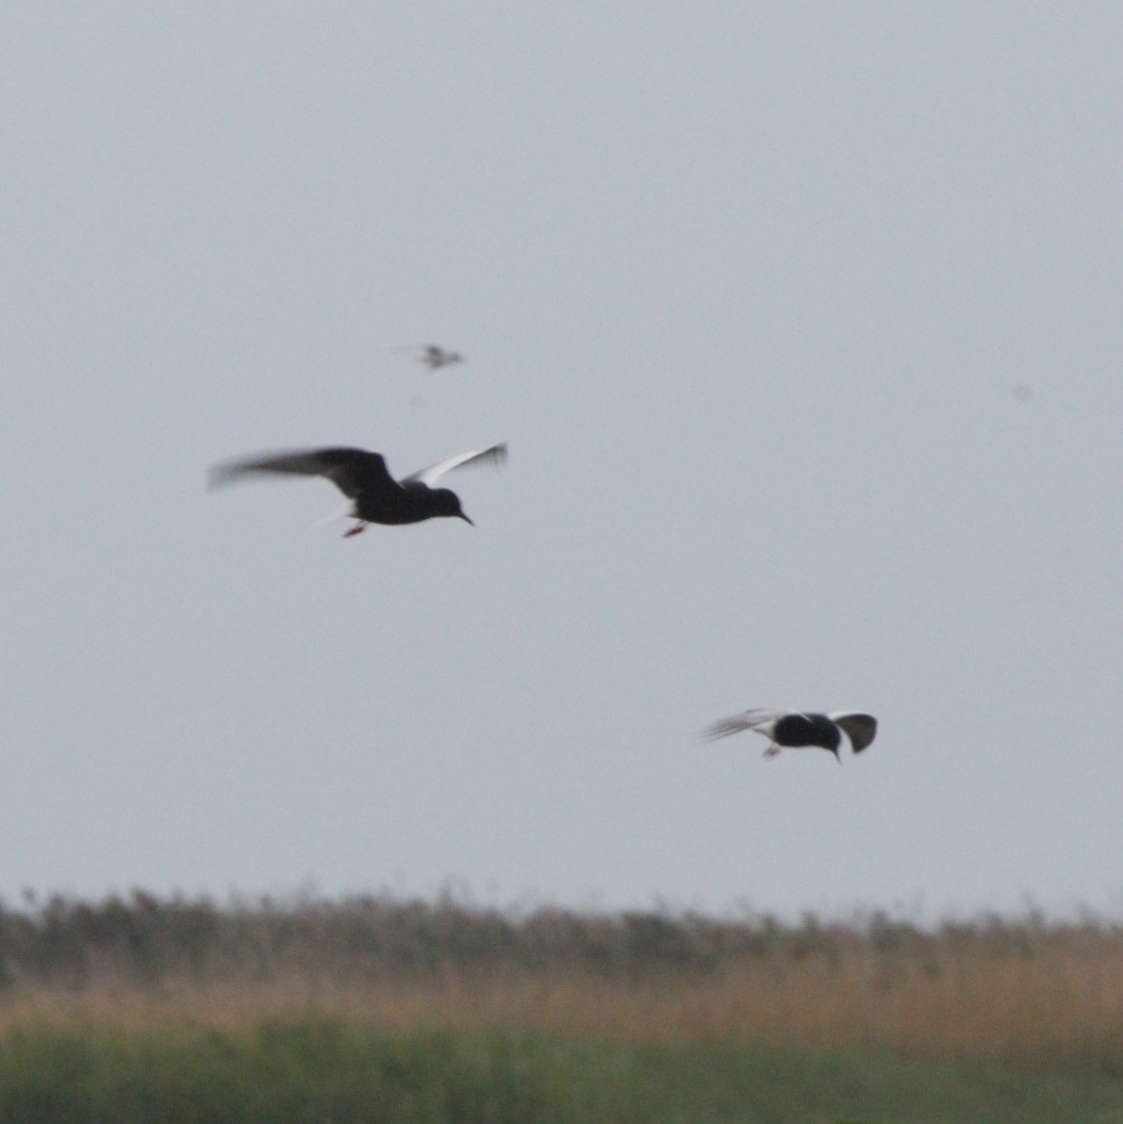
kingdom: Animalia
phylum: Chordata
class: Aves
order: Charadriiformes
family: Laridae
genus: Chlidonias
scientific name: Chlidonias leucopterus
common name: White-winged tern
